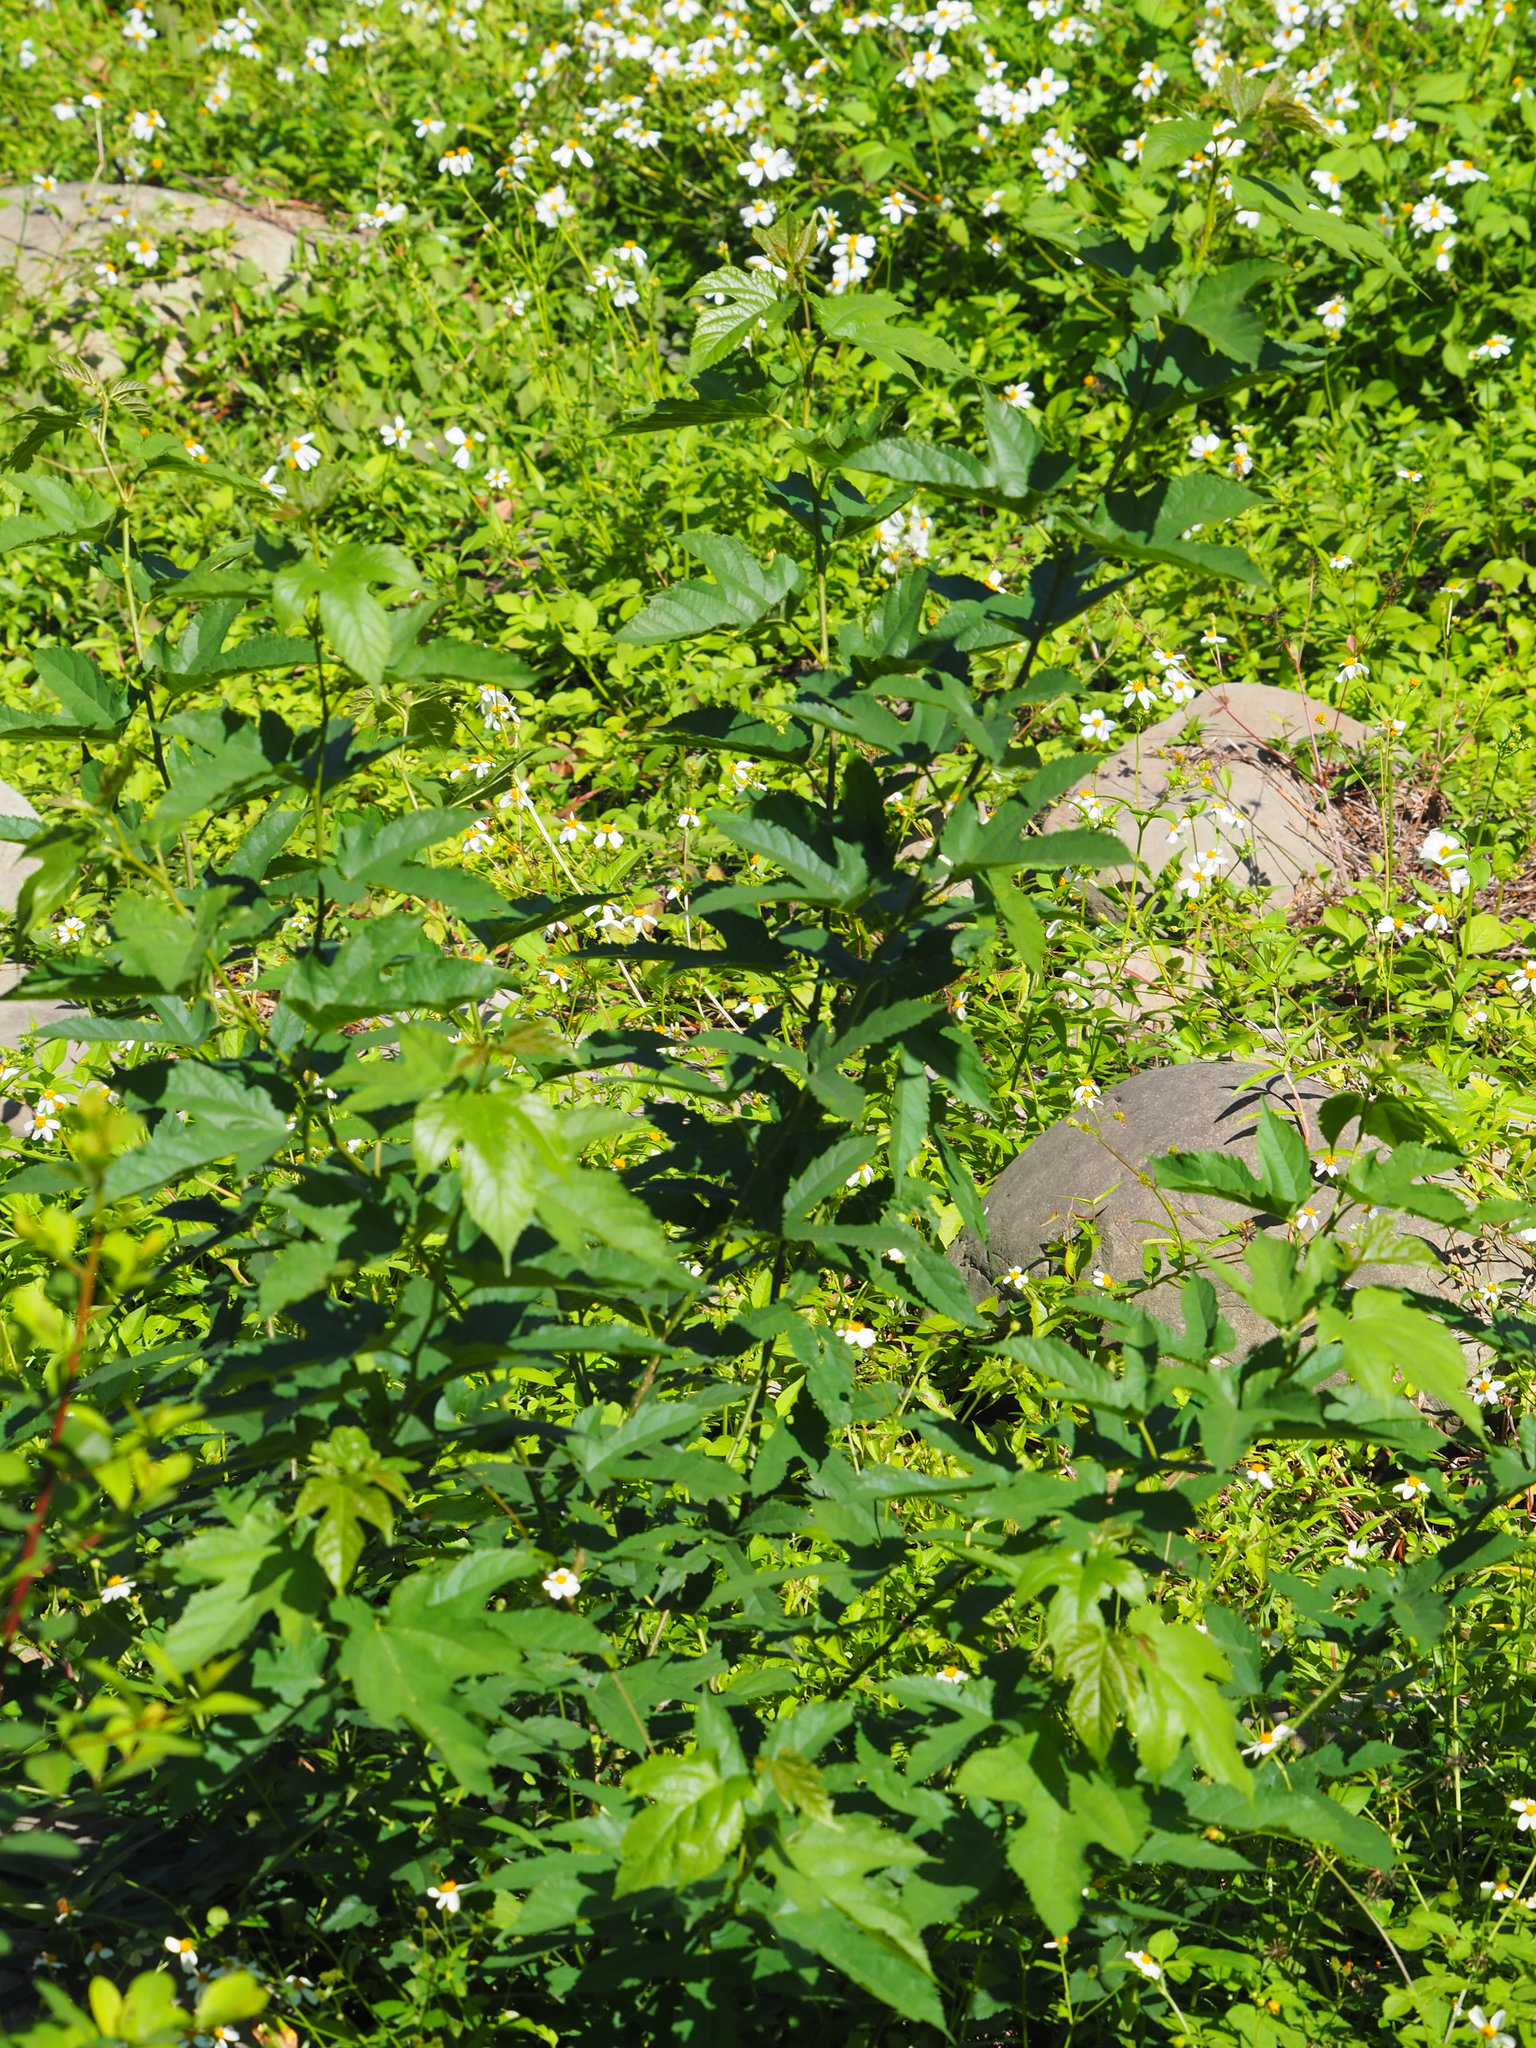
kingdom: Plantae
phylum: Tracheophyta
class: Magnoliopsida
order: Rosales
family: Moraceae
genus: Morus
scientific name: Morus indica
